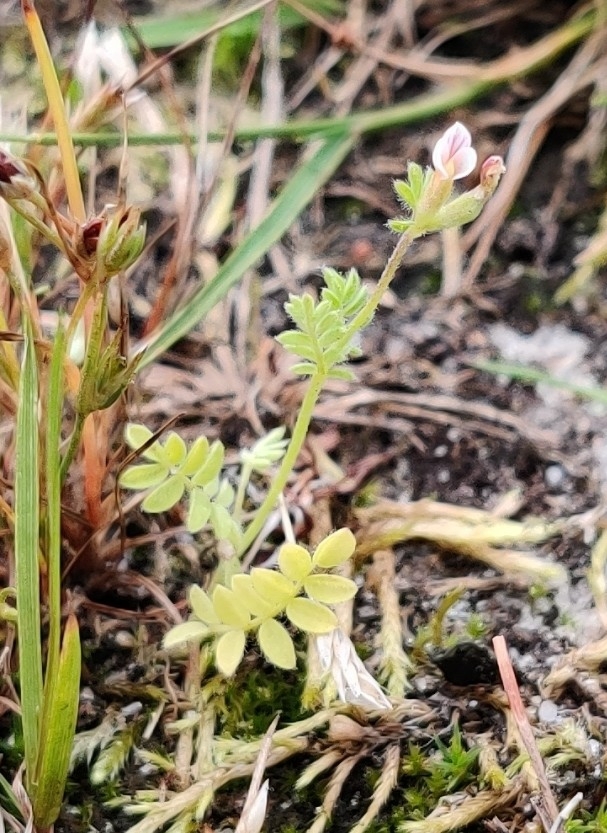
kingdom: Plantae
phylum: Tracheophyta
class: Magnoliopsida
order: Fabales
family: Fabaceae
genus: Ornithopus
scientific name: Ornithopus perpusillus
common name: Bird's-foot
